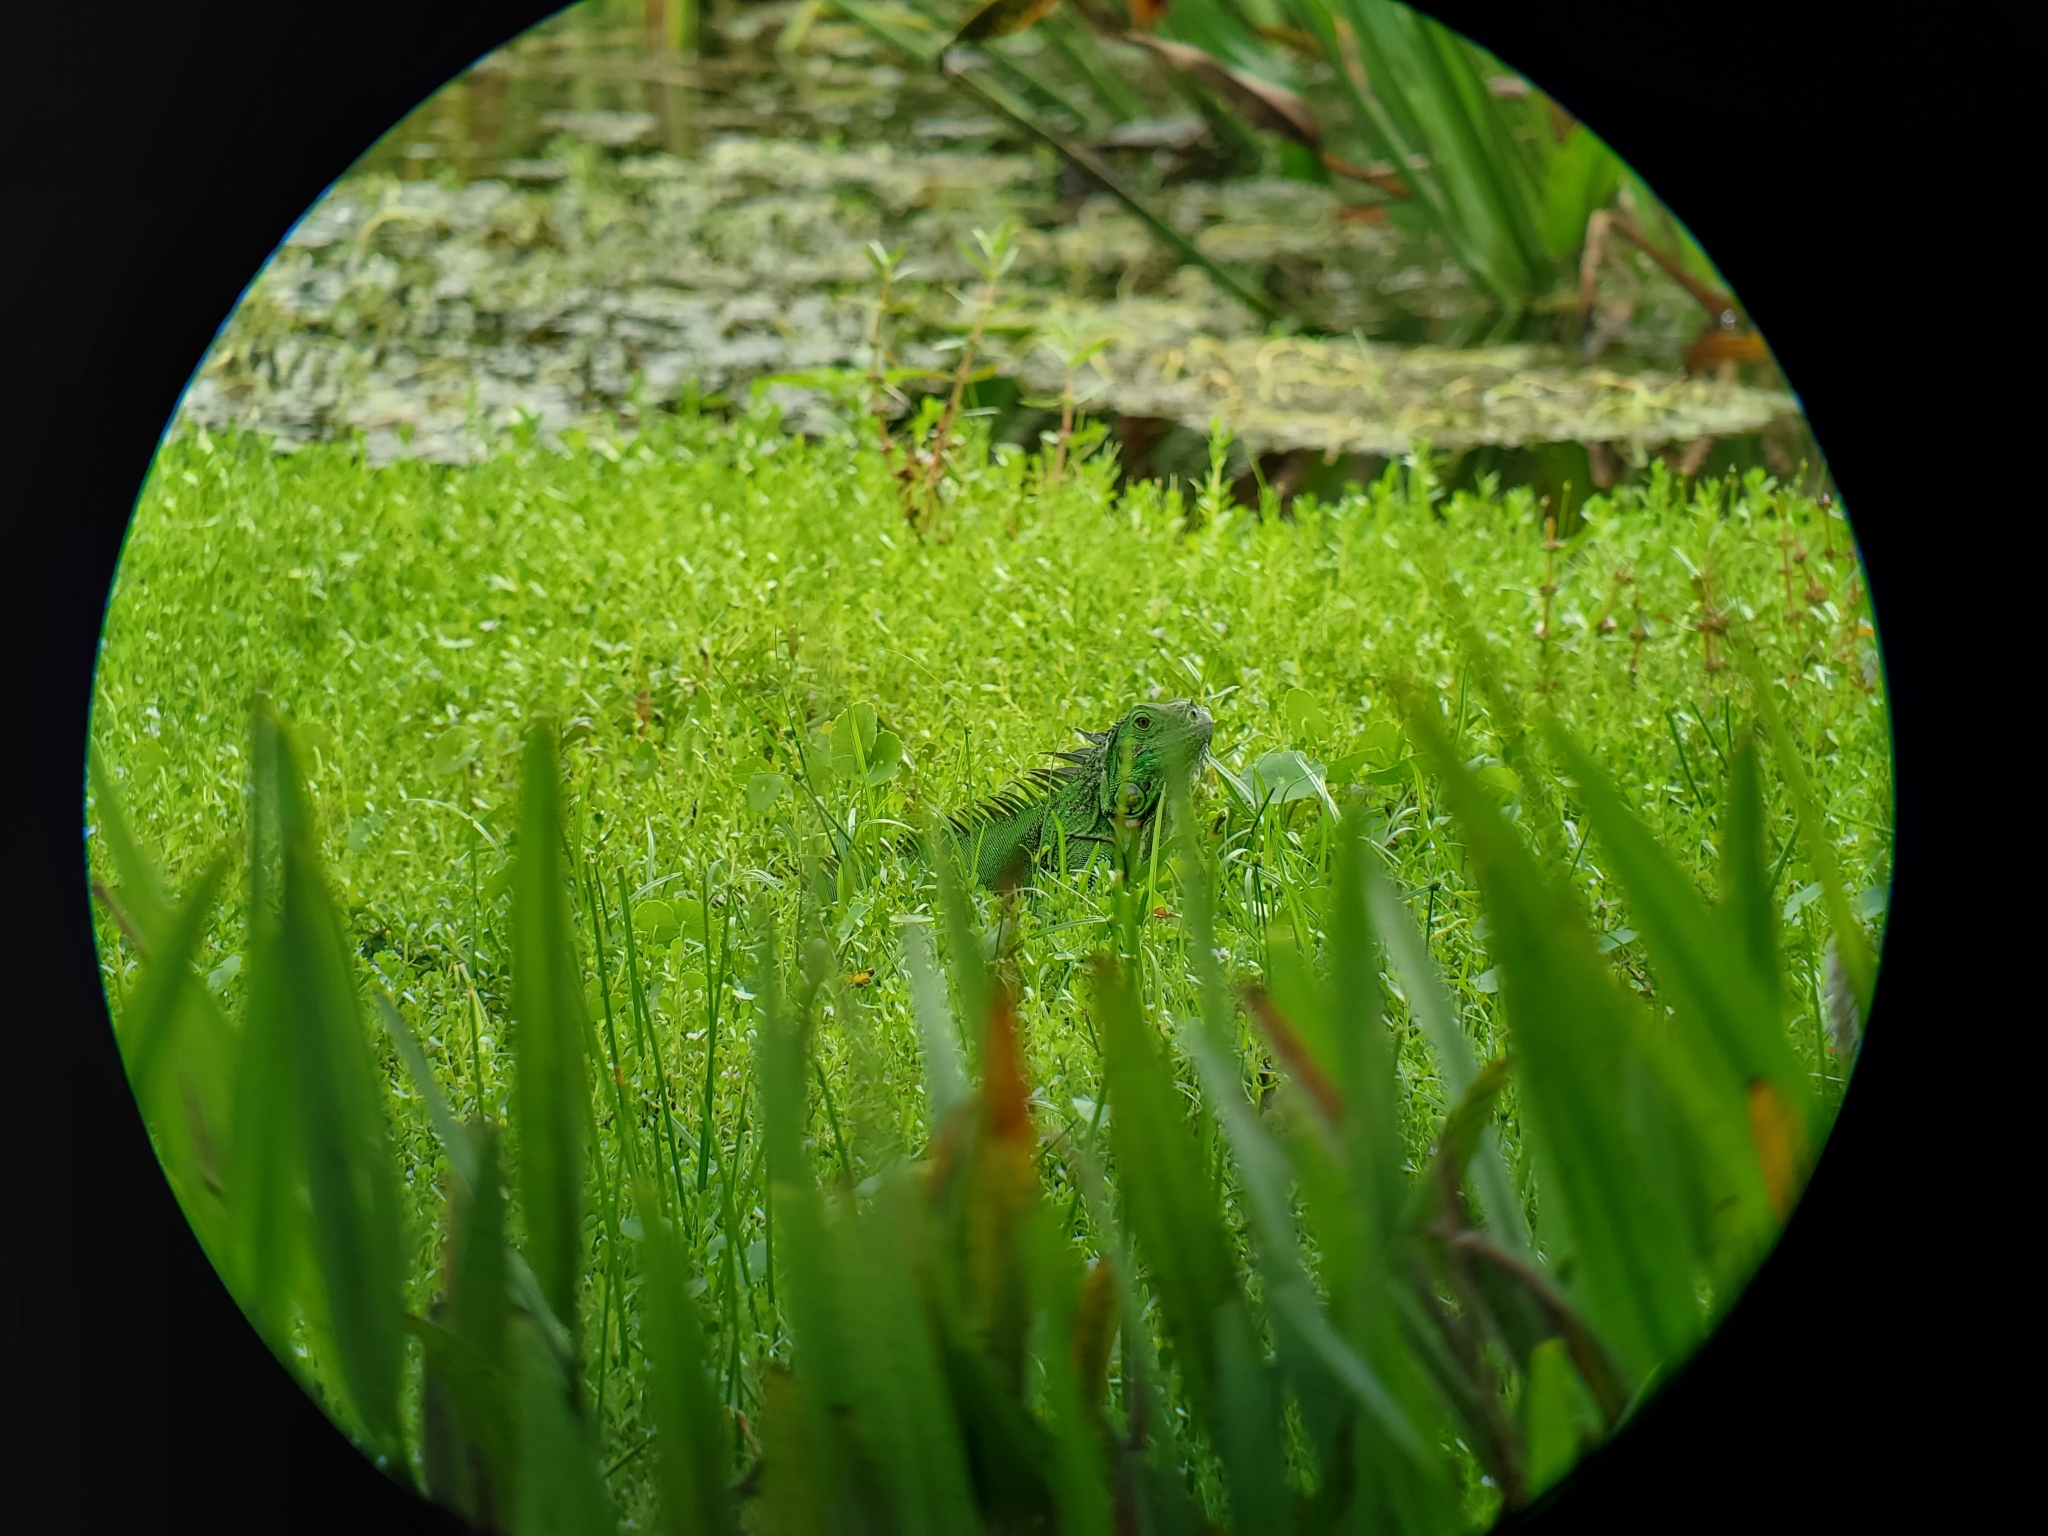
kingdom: Animalia
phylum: Chordata
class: Squamata
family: Iguanidae
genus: Iguana
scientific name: Iguana iguana
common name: Green iguana
